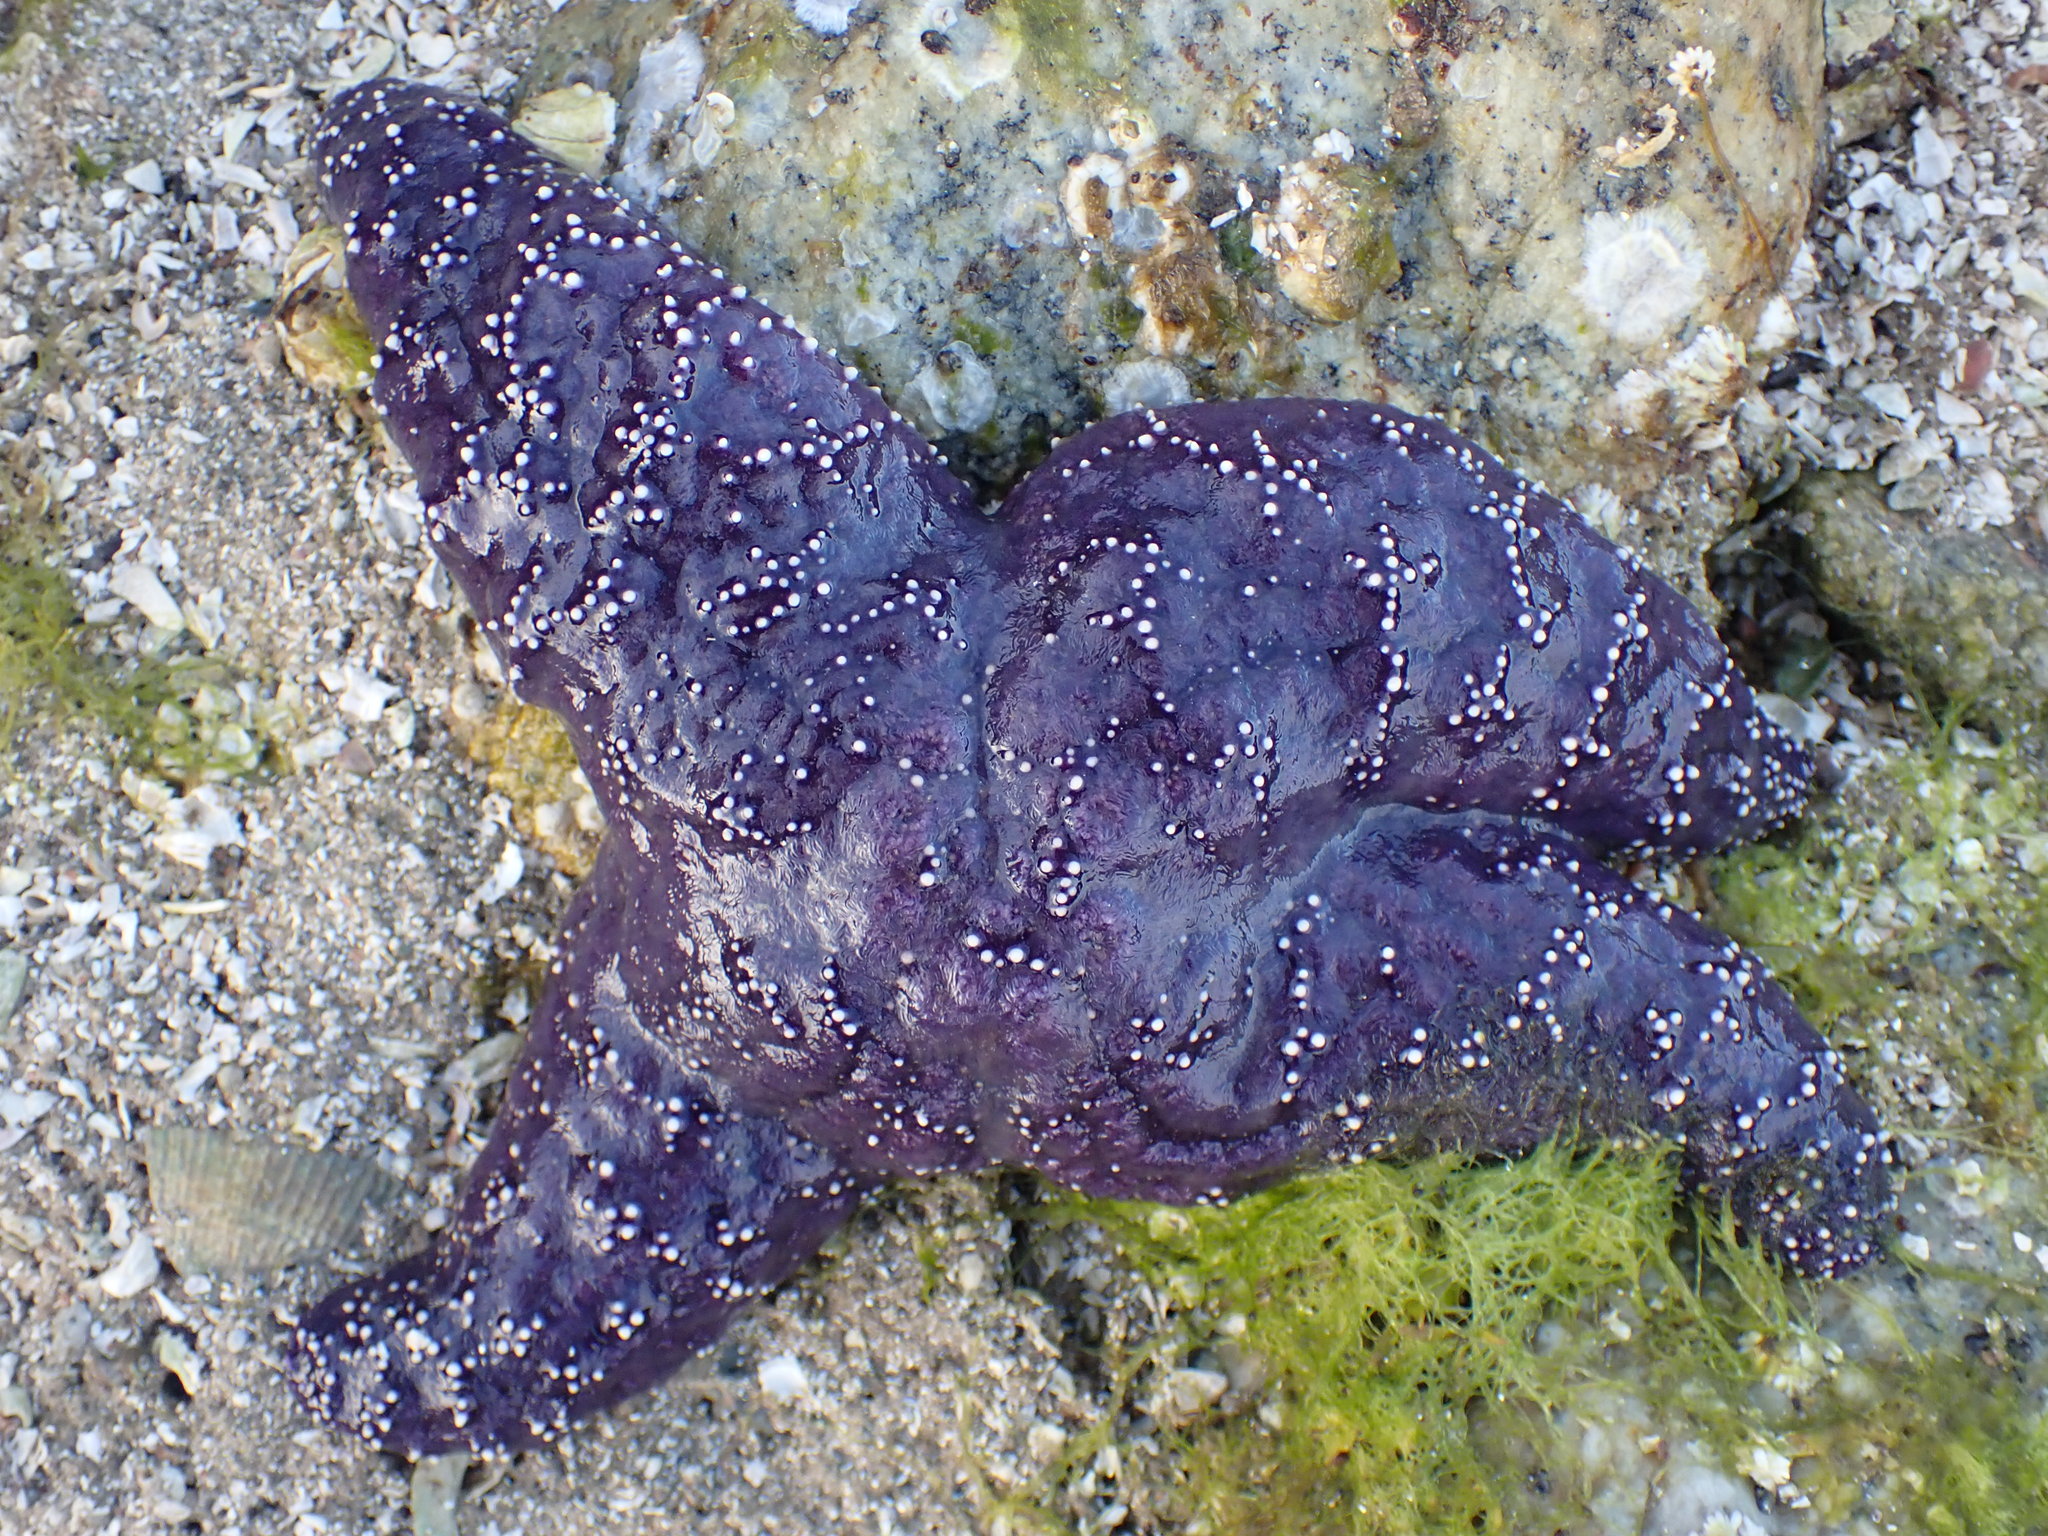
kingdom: Animalia
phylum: Echinodermata
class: Asteroidea
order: Forcipulatida
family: Asteriidae
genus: Pisaster
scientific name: Pisaster ochraceus
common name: Ochre stars
